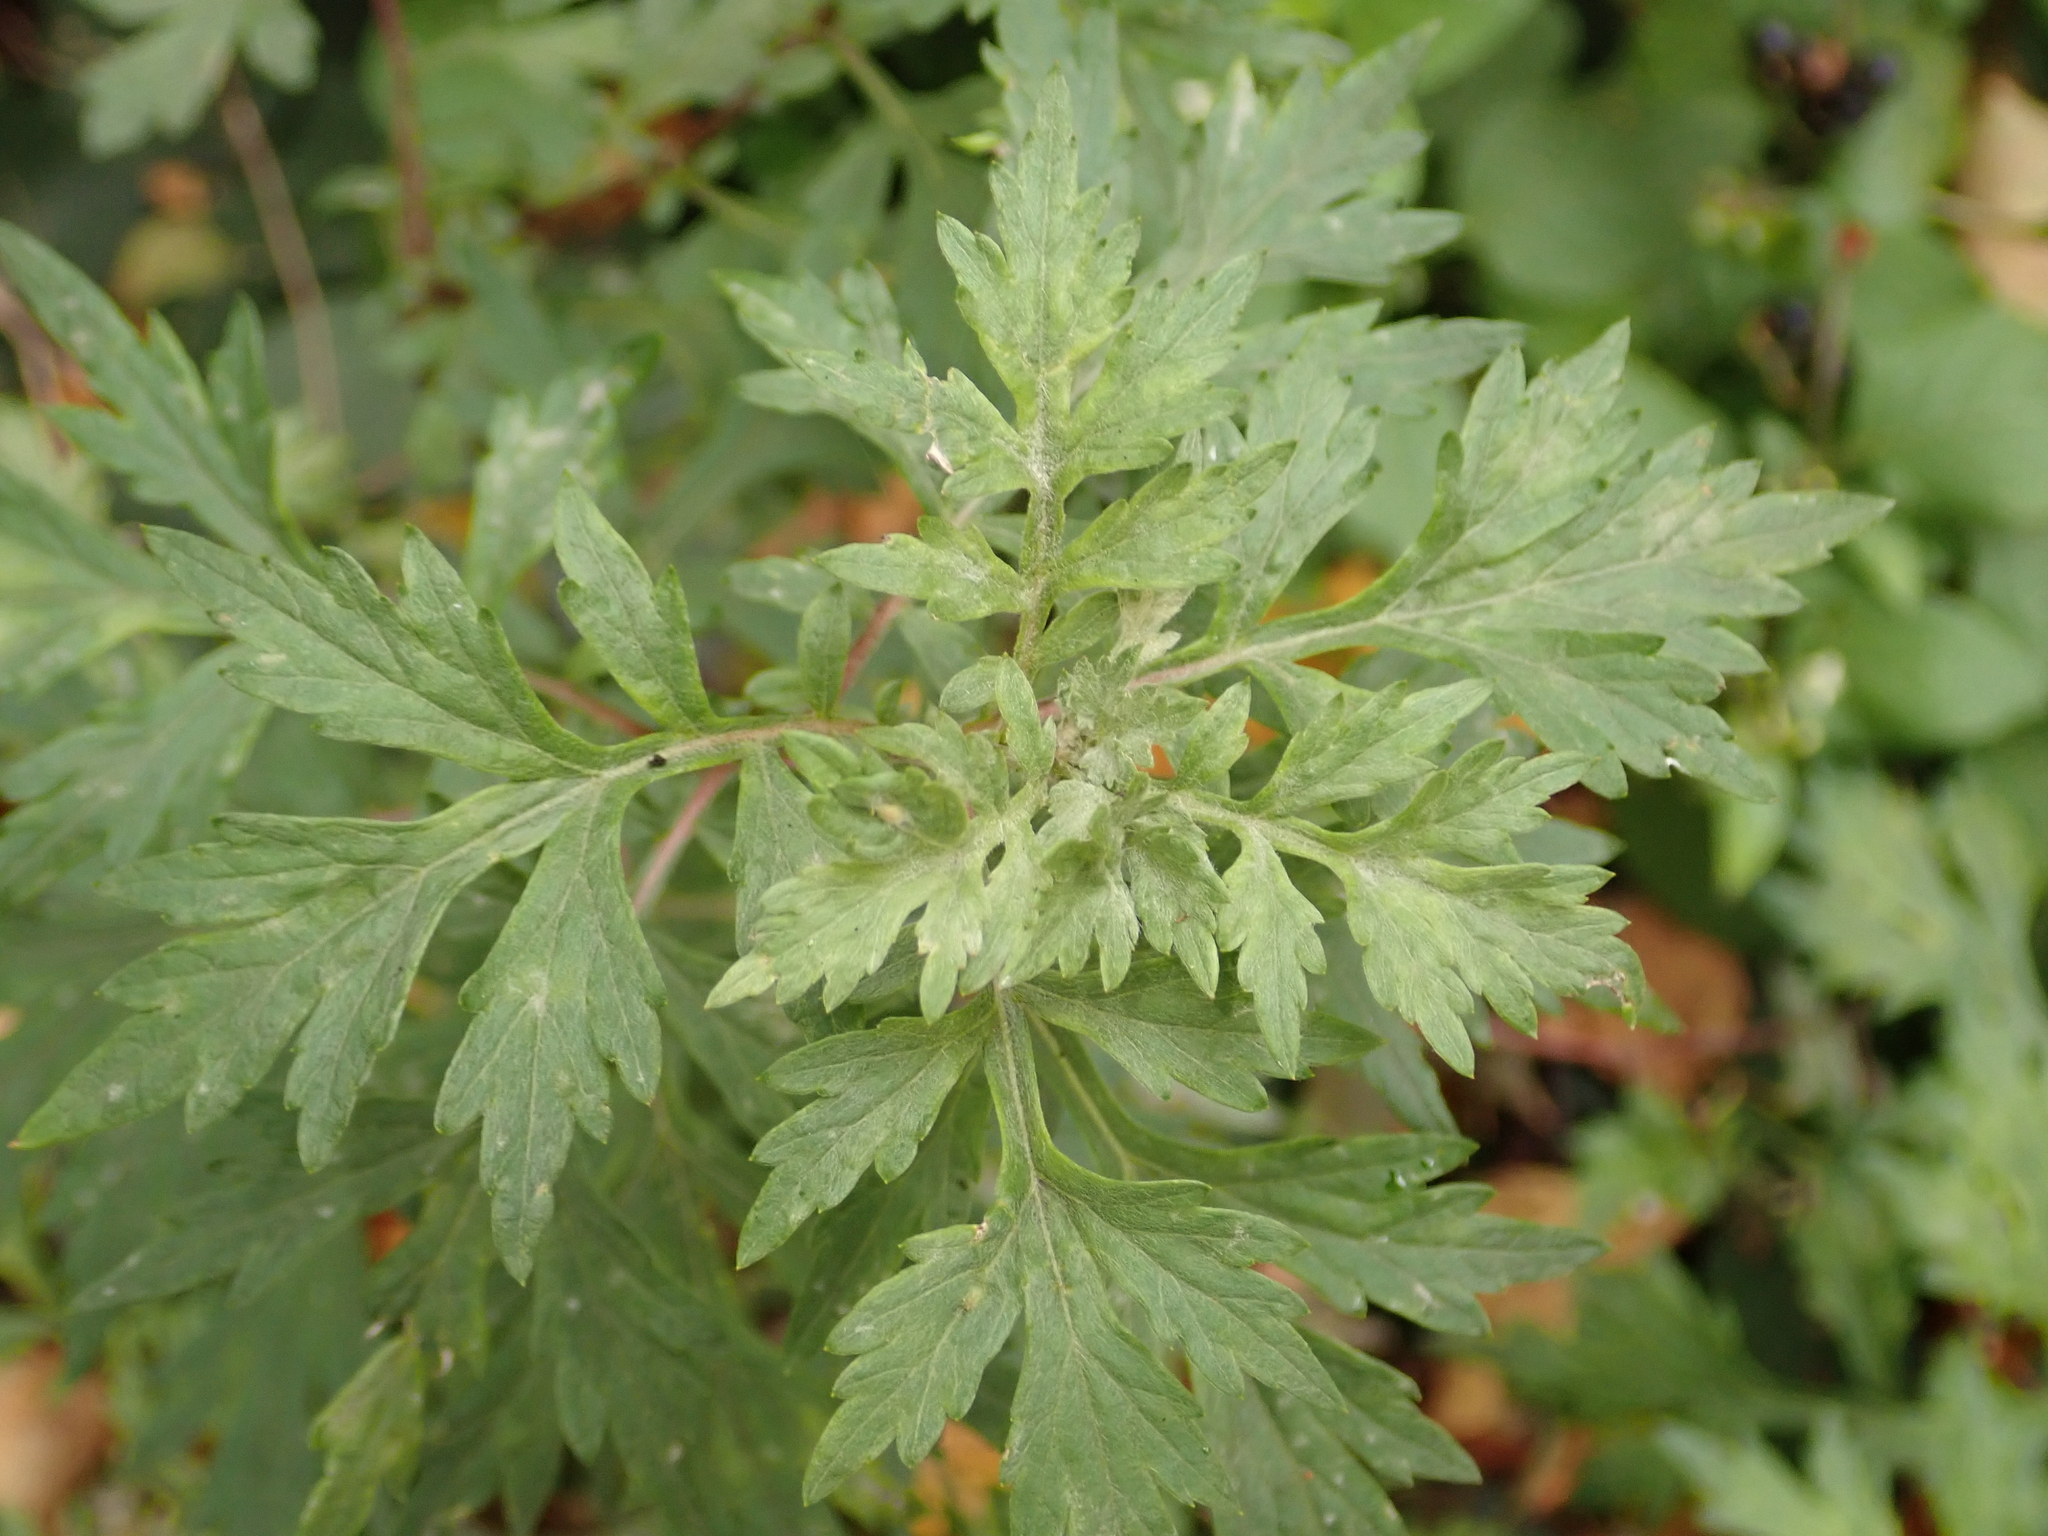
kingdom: Plantae
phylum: Tracheophyta
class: Magnoliopsida
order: Asterales
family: Asteraceae
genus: Artemisia
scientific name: Artemisia vulgaris
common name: Mugwort
